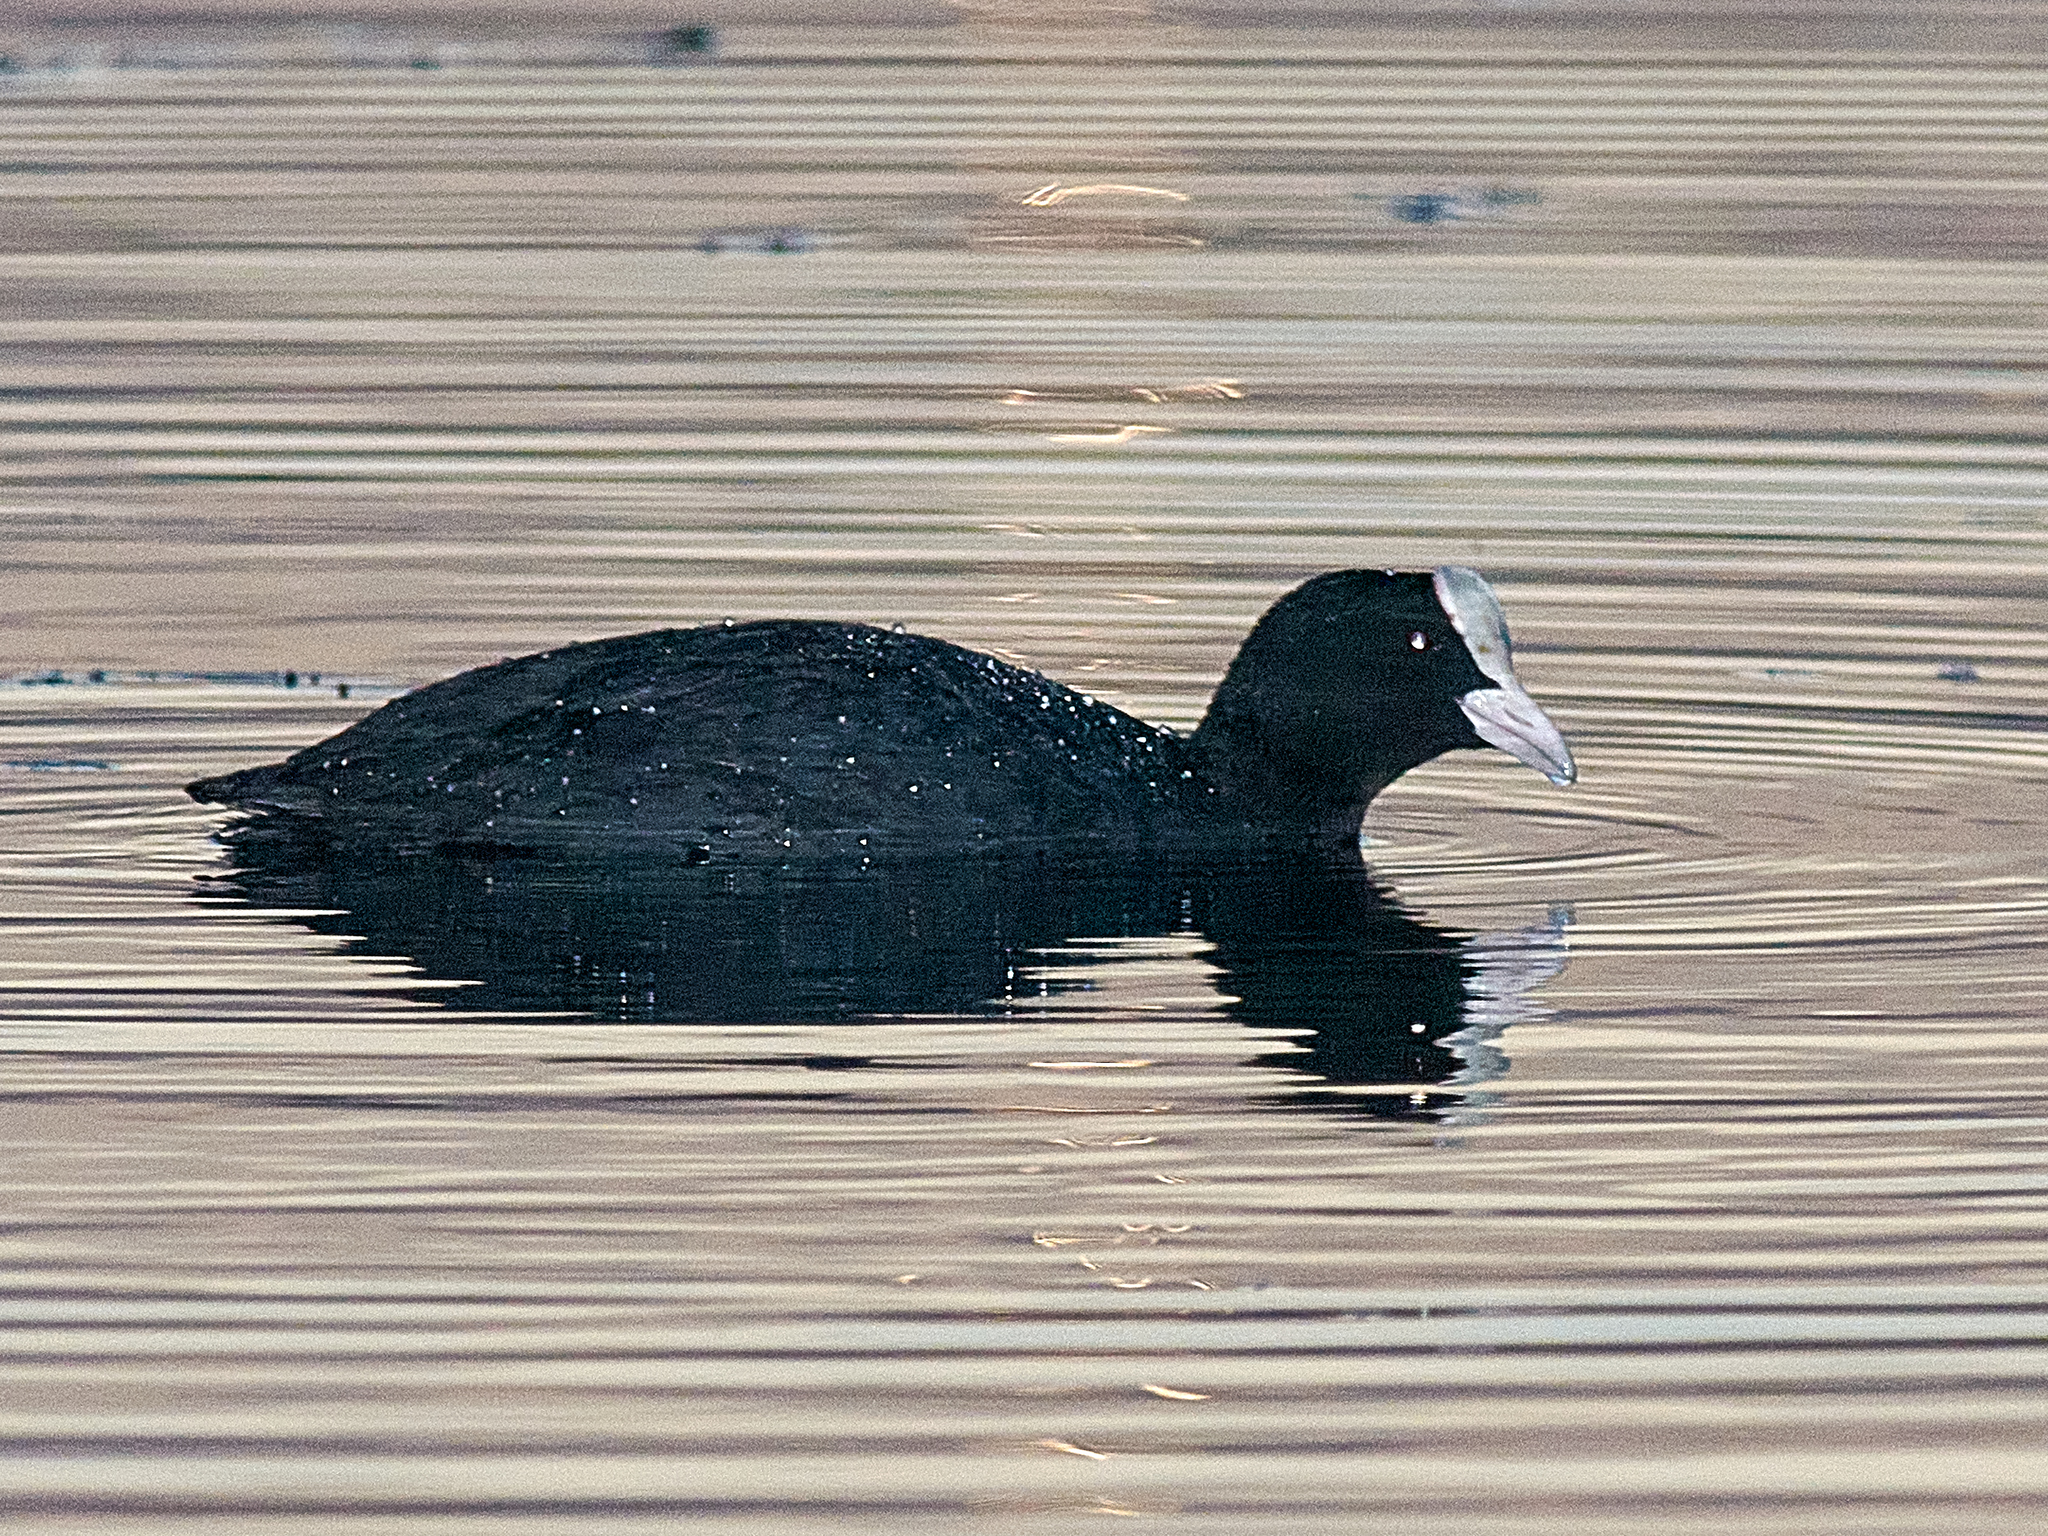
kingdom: Animalia
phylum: Chordata
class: Aves
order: Gruiformes
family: Rallidae
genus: Fulica
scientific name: Fulica atra
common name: Eurasian coot
